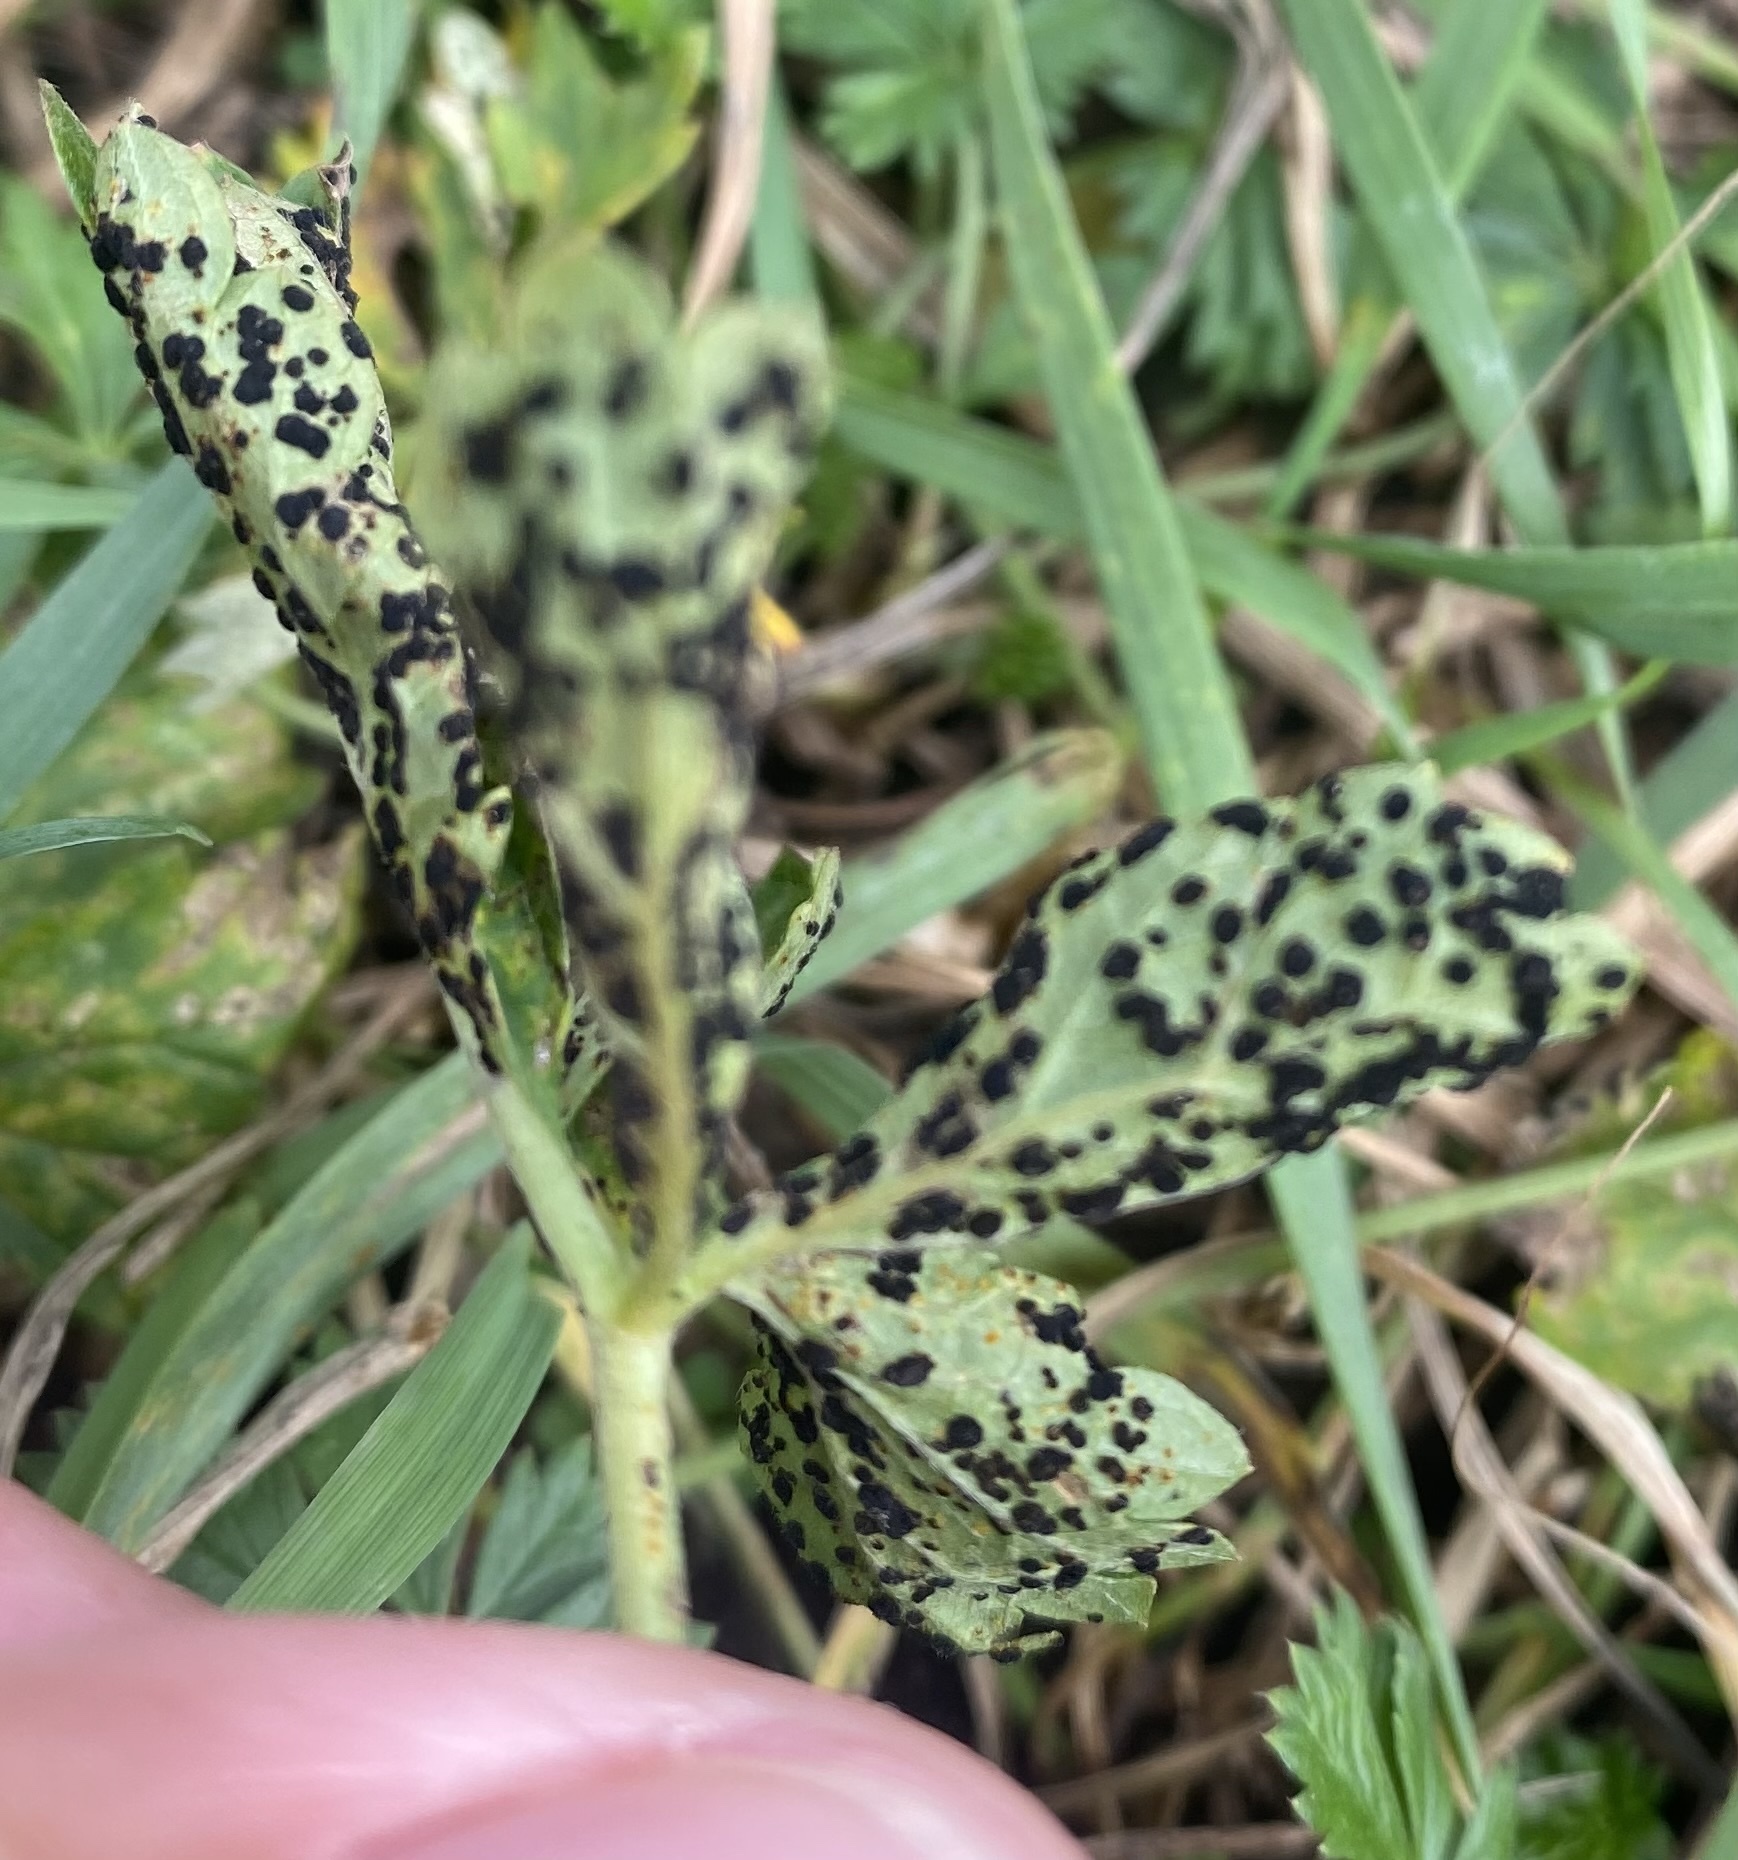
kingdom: Fungi
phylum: Basidiomycota
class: Pucciniomycetes
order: Pucciniales
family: Phragmidiaceae
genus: Phragmidium
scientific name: Phragmidium potentillae
